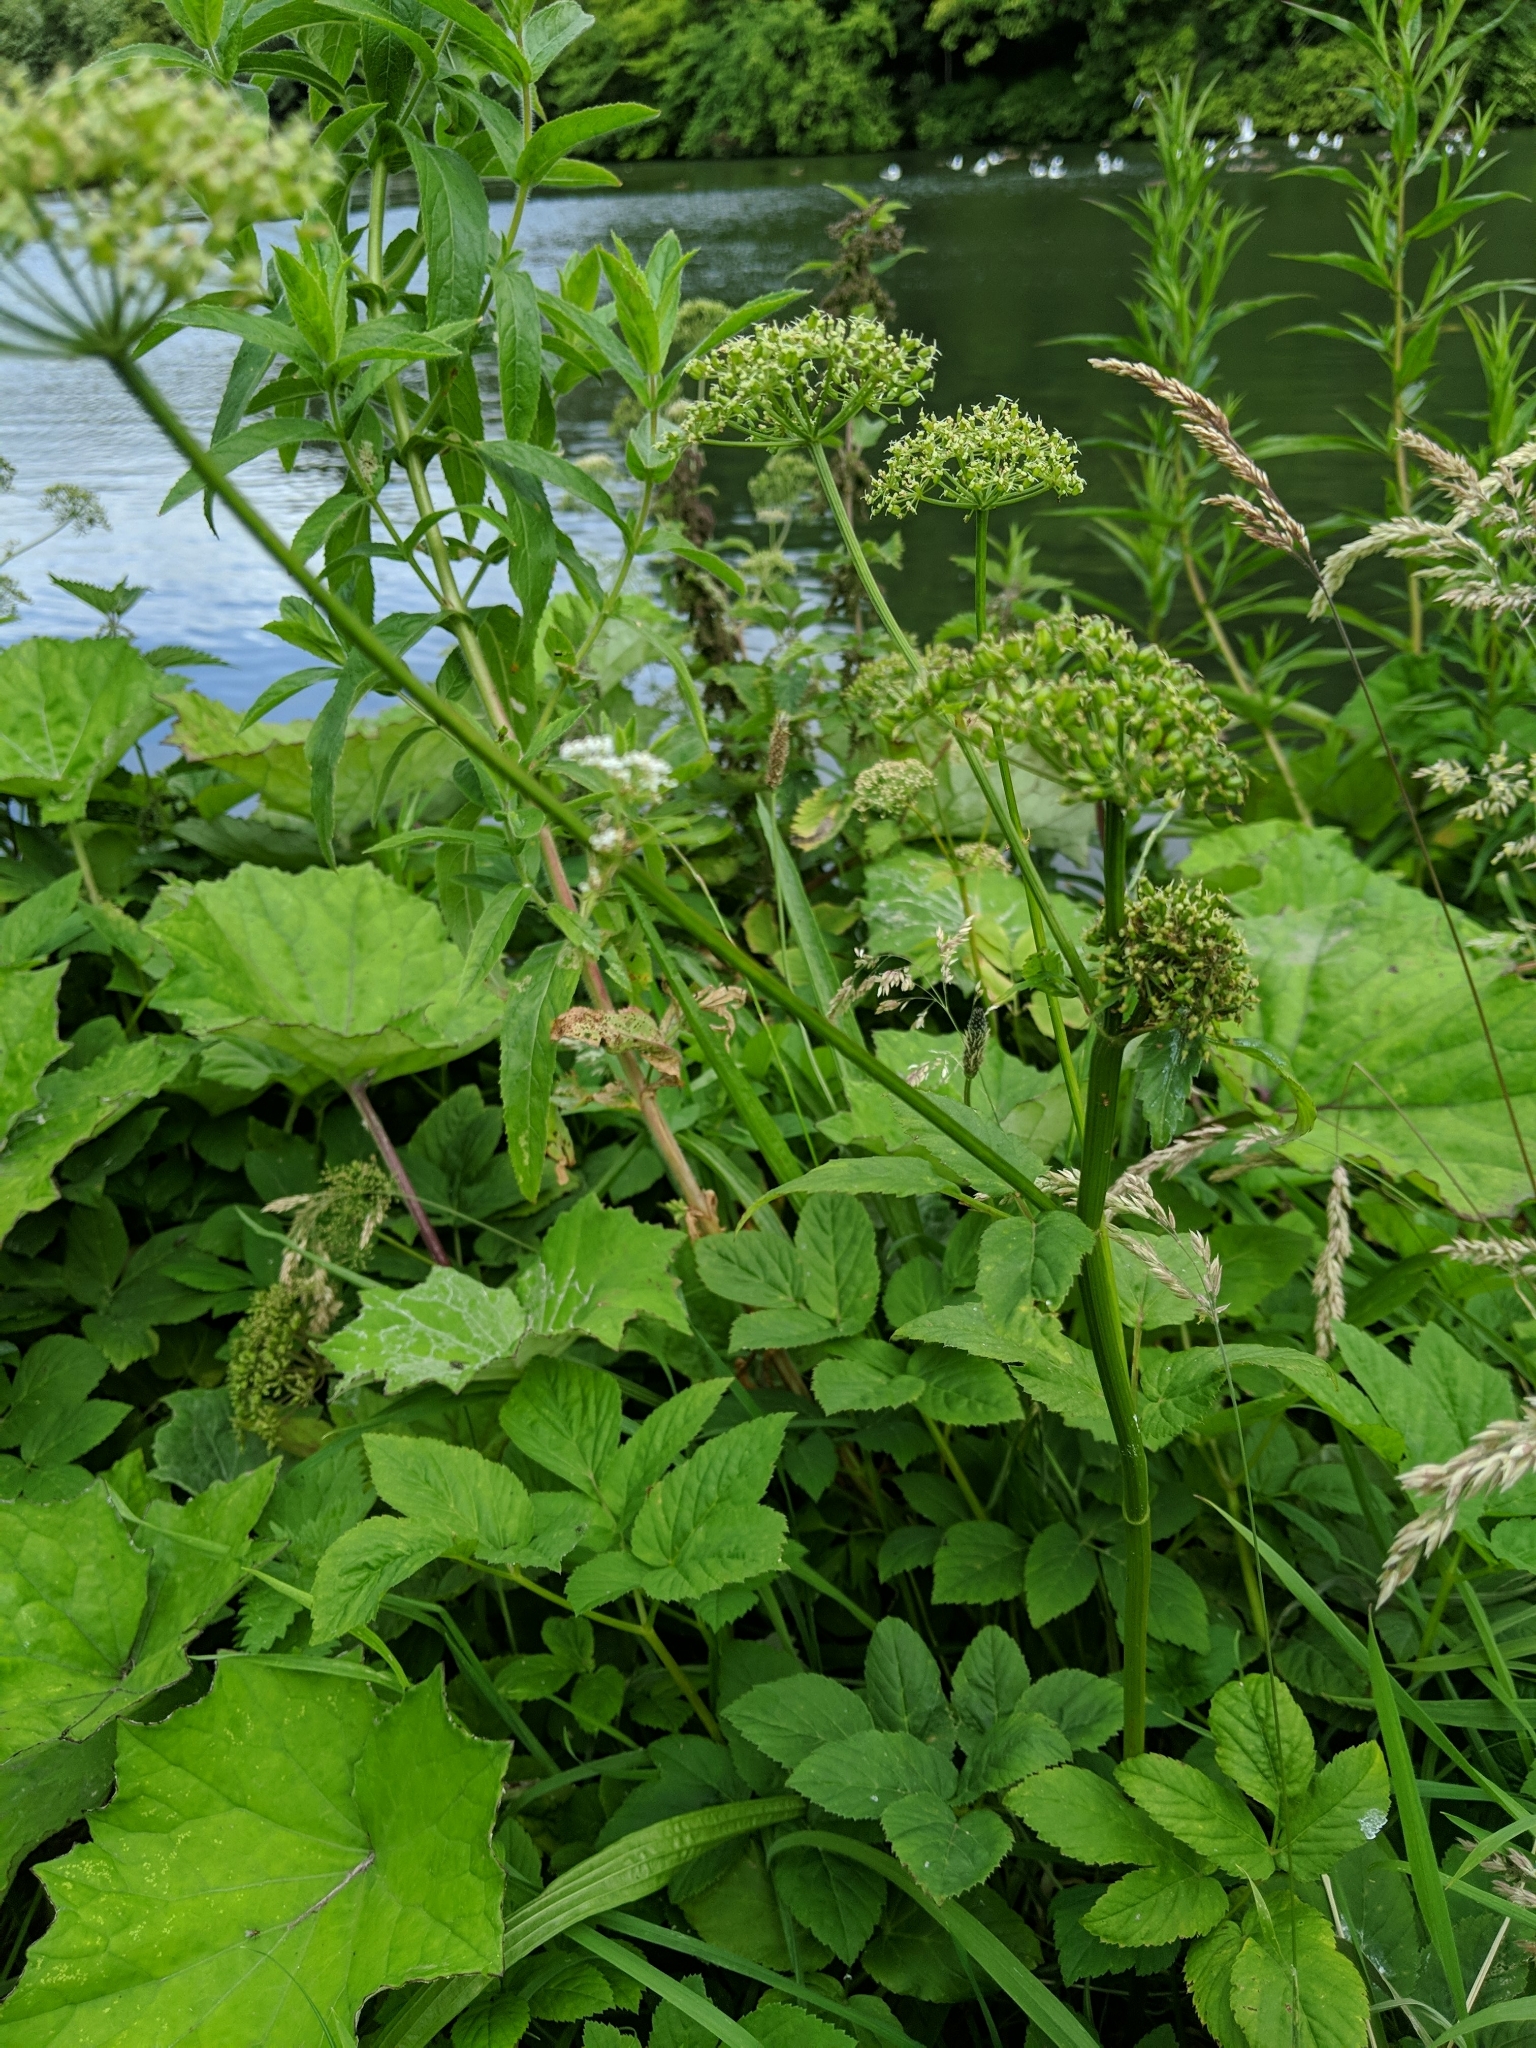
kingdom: Plantae
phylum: Tracheophyta
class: Magnoliopsida
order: Apiales
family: Apiaceae
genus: Aegopodium
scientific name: Aegopodium podagraria
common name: Ground-elder
